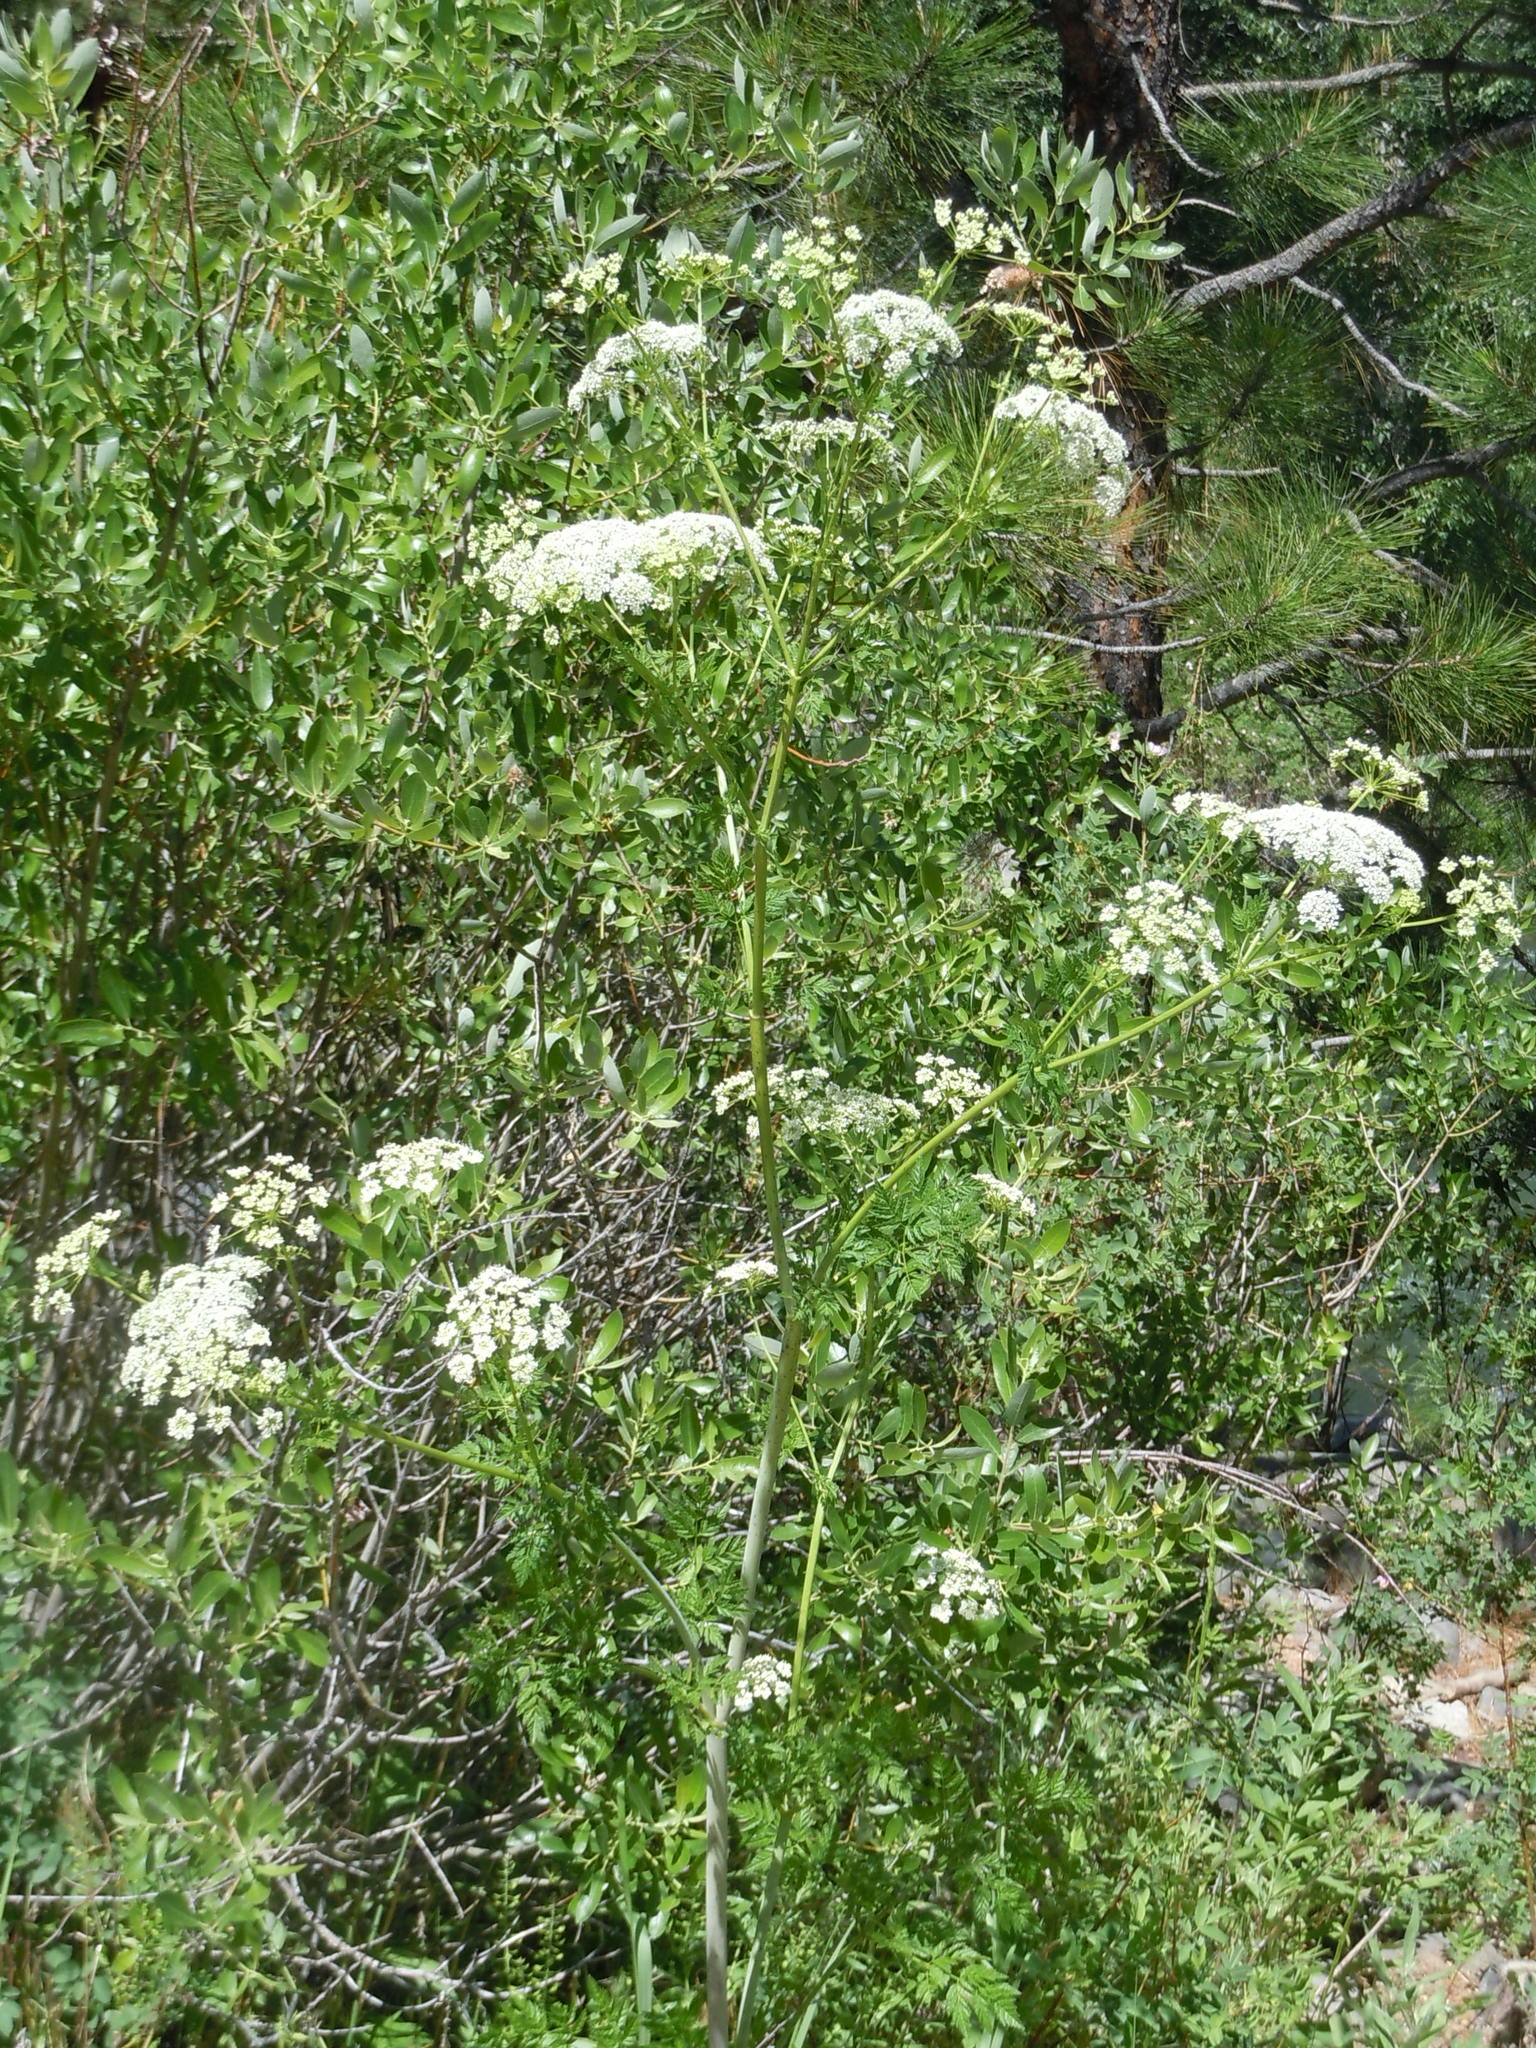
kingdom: Plantae
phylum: Tracheophyta
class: Magnoliopsida
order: Apiales
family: Apiaceae
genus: Conium
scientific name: Conium maculatum
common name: Hemlock
